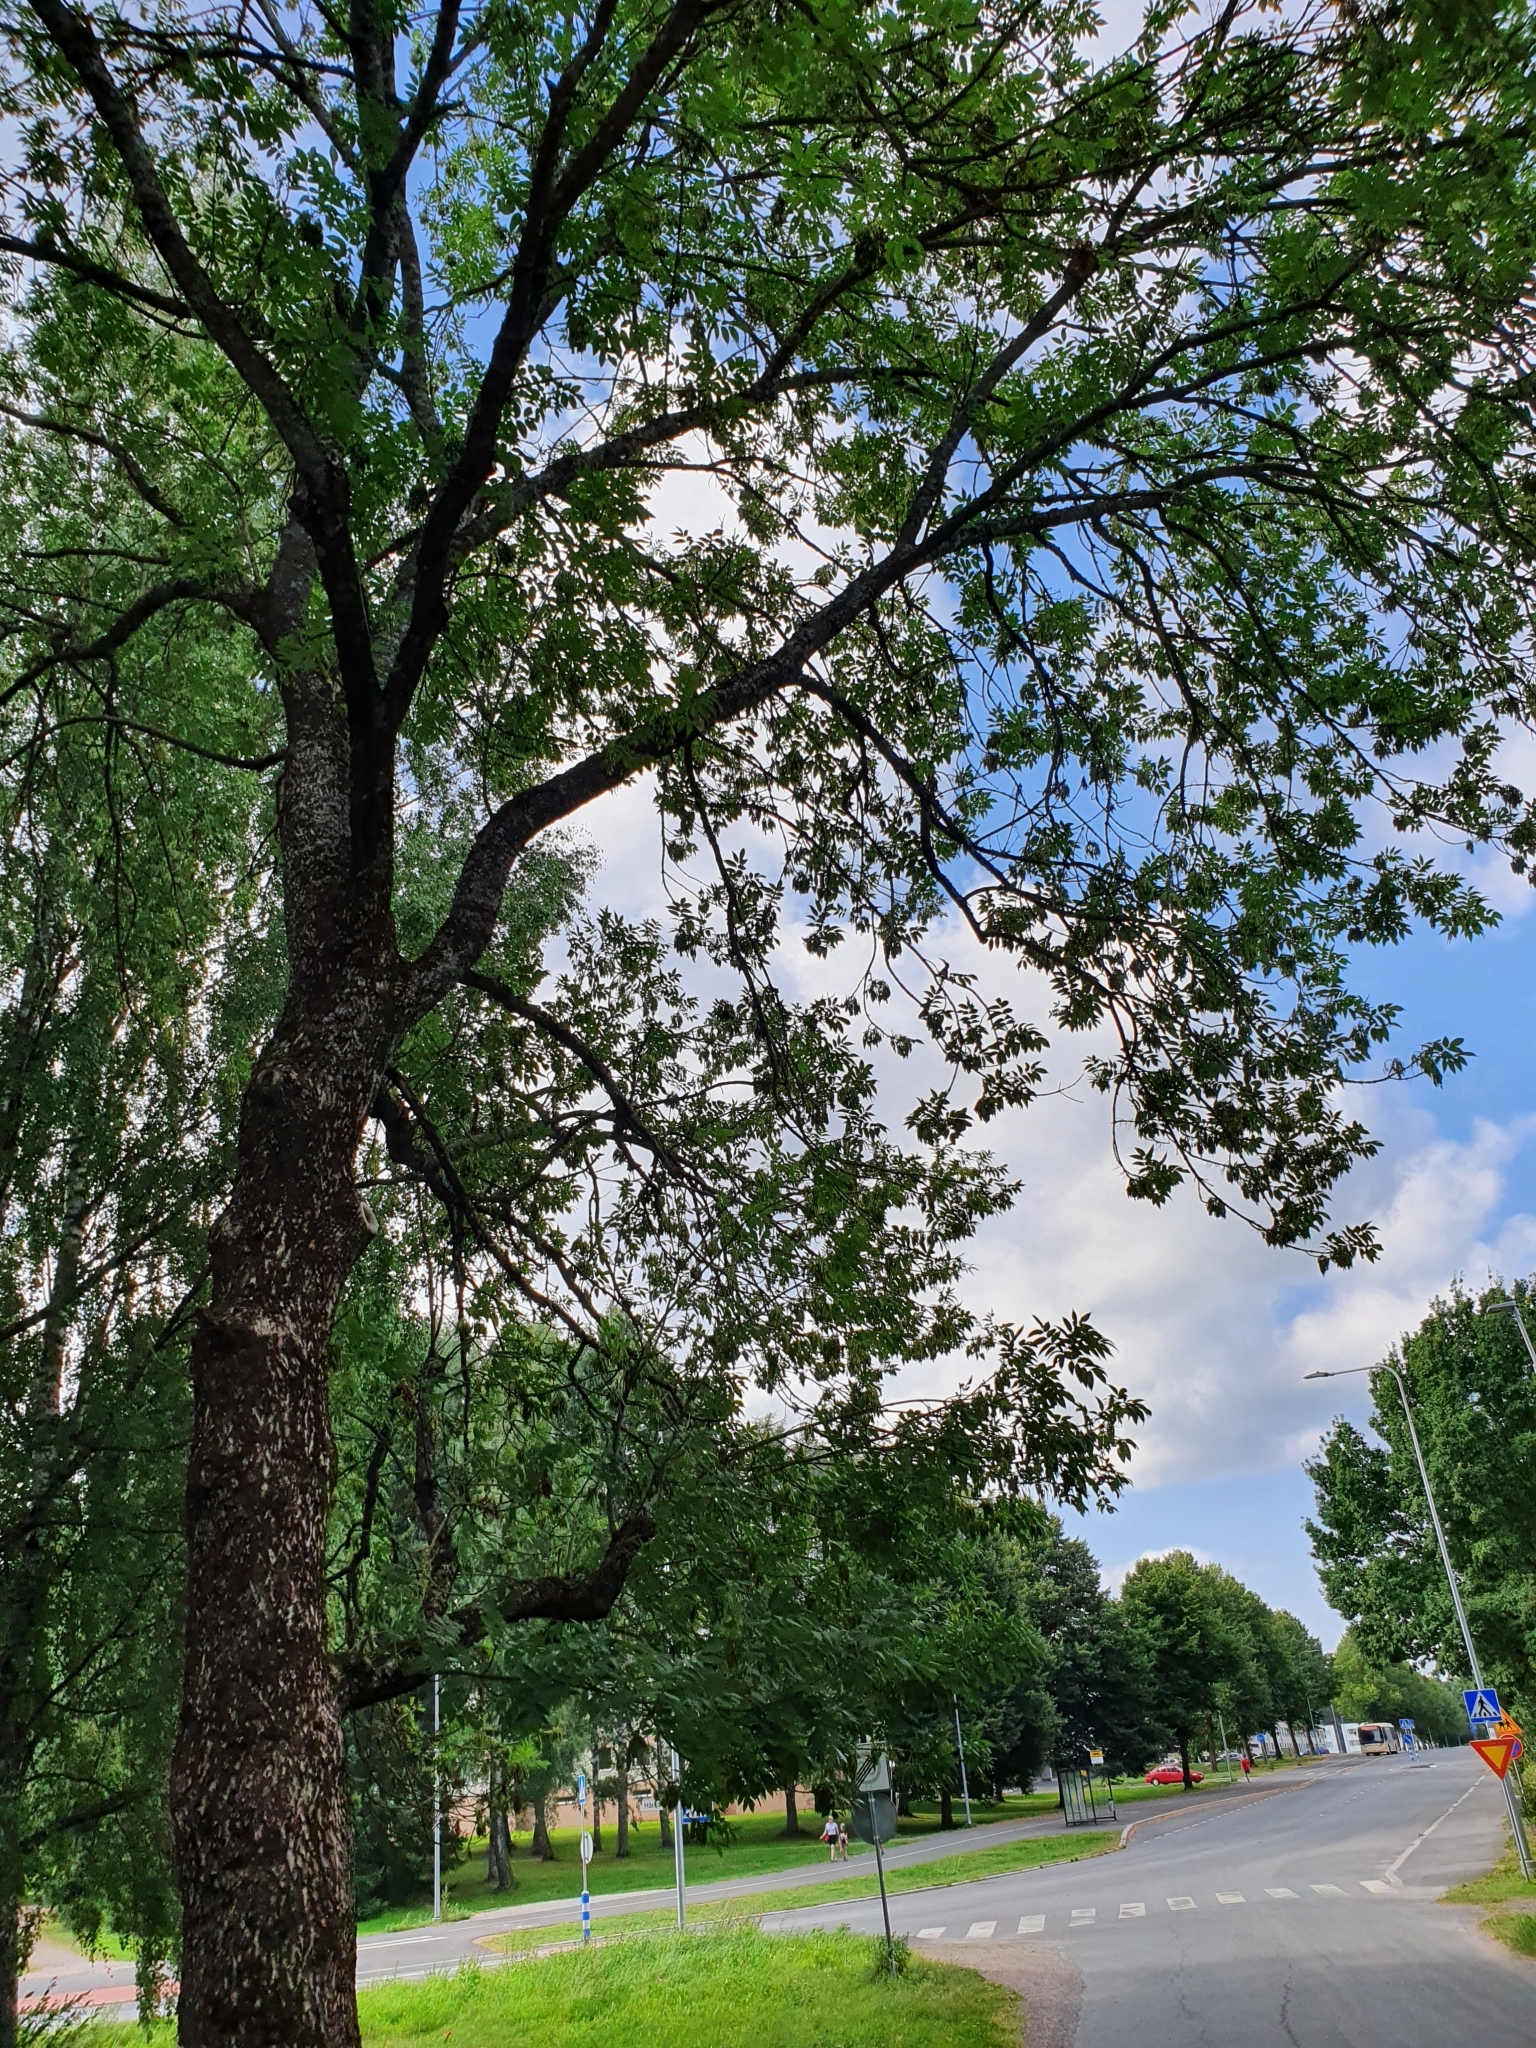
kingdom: Plantae
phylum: Tracheophyta
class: Magnoliopsida
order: Lamiales
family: Oleaceae
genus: Fraxinus
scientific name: Fraxinus excelsior
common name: European ash
